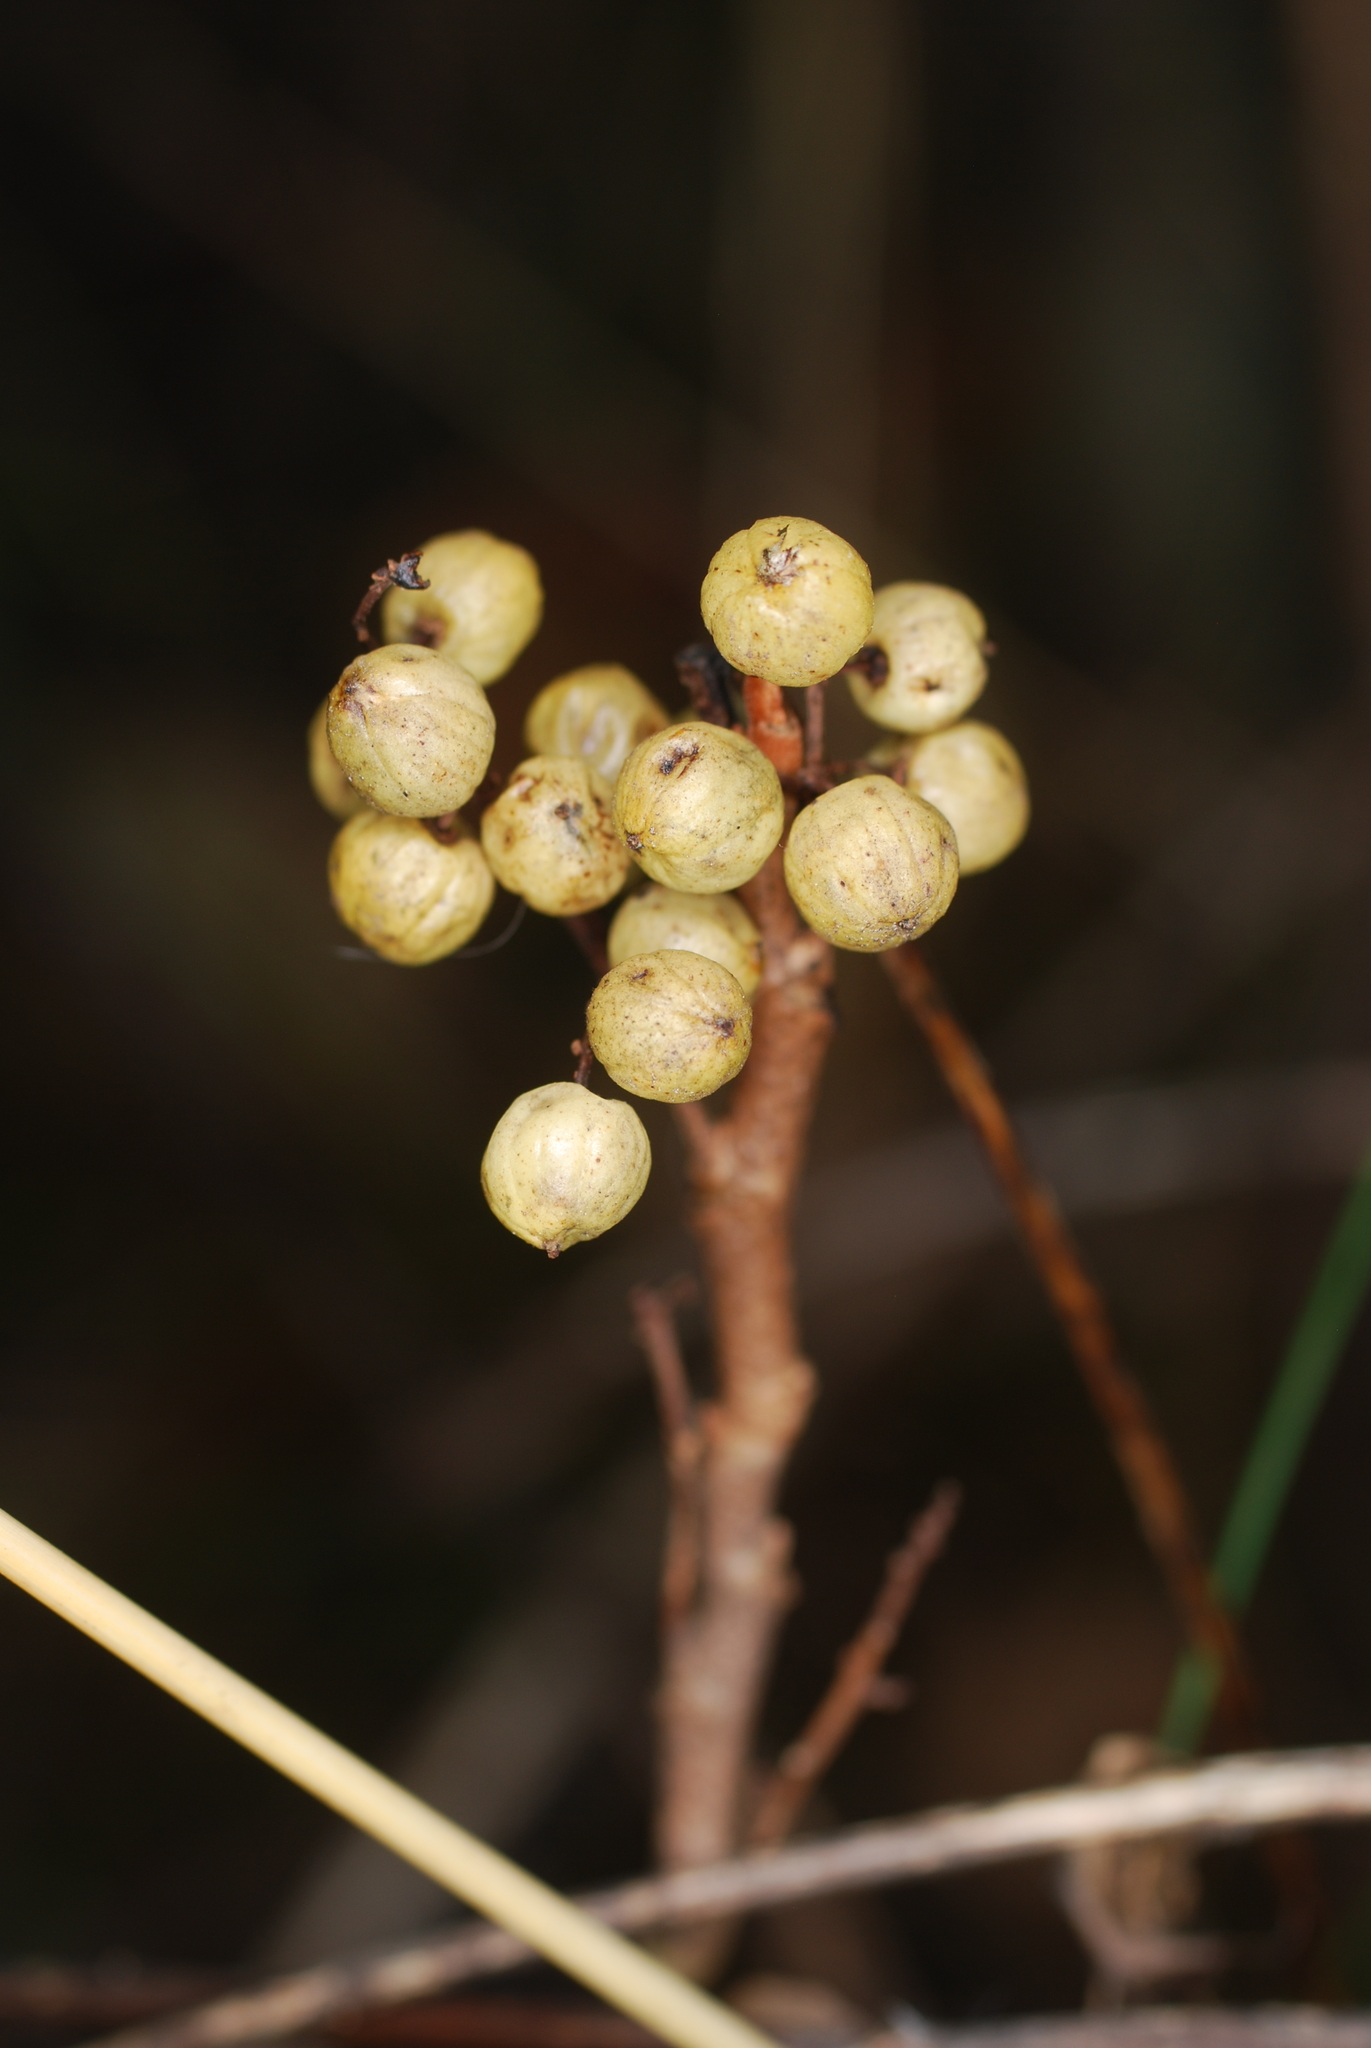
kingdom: Plantae
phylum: Tracheophyta
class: Magnoliopsida
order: Sapindales
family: Anacardiaceae
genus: Toxicodendron
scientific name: Toxicodendron rydbergii
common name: Rydberg's poison-ivy
